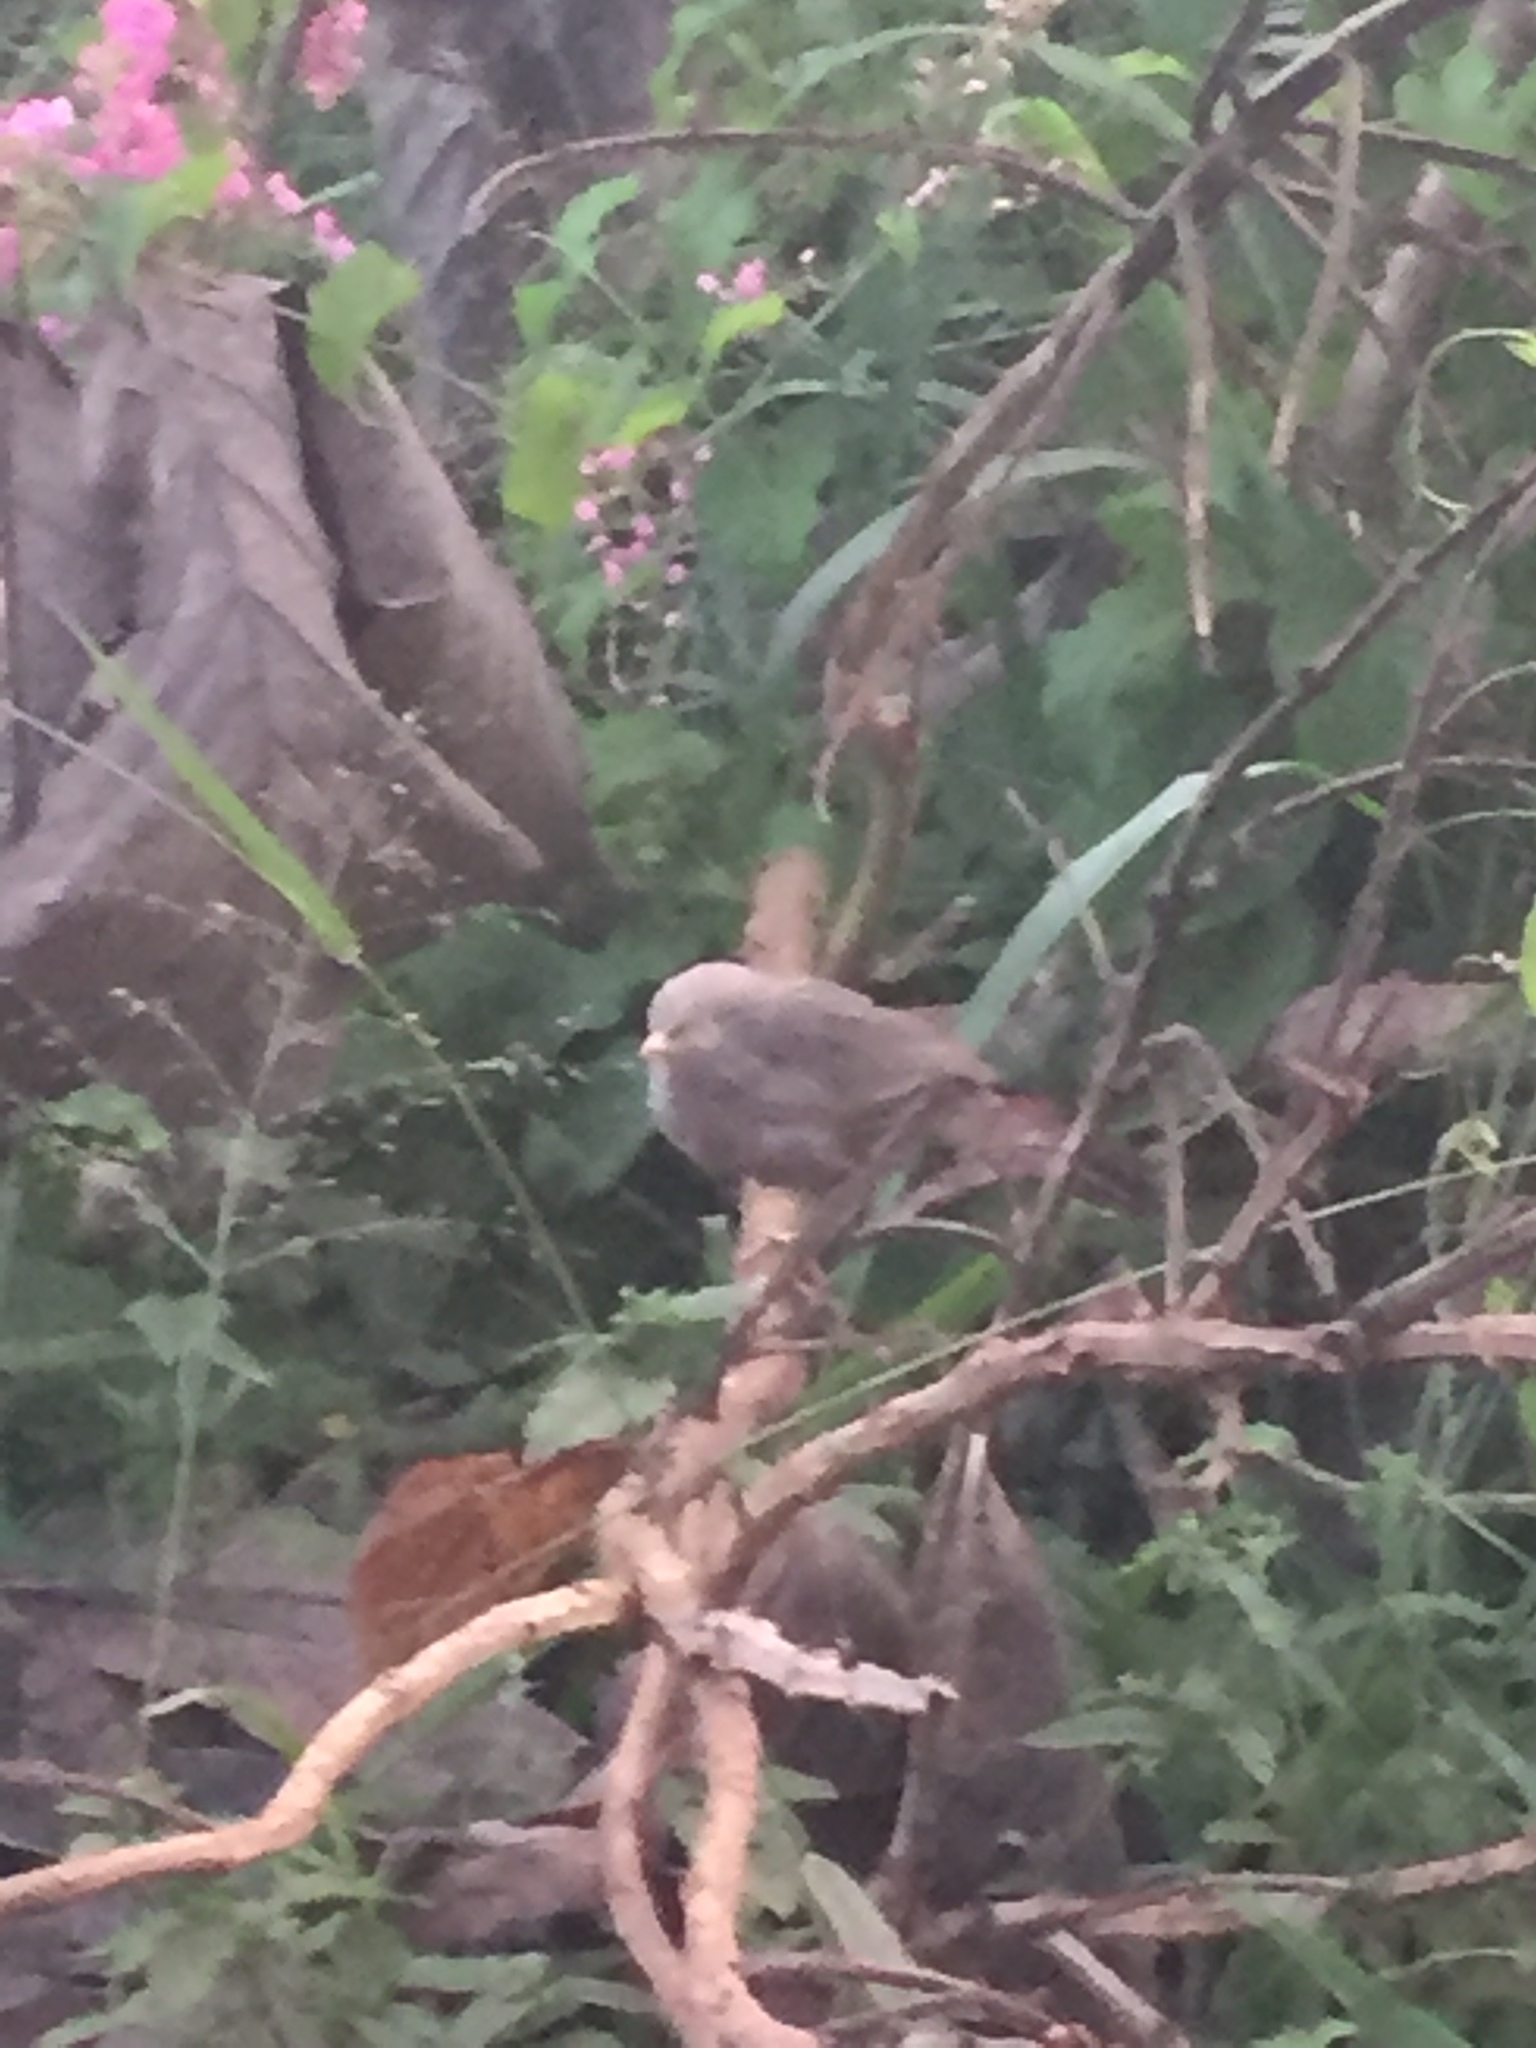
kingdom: Animalia
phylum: Chordata
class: Aves
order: Passeriformes
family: Leiothrichidae
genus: Turdoides
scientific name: Turdoides affinis
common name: Yellow-billed babbler
